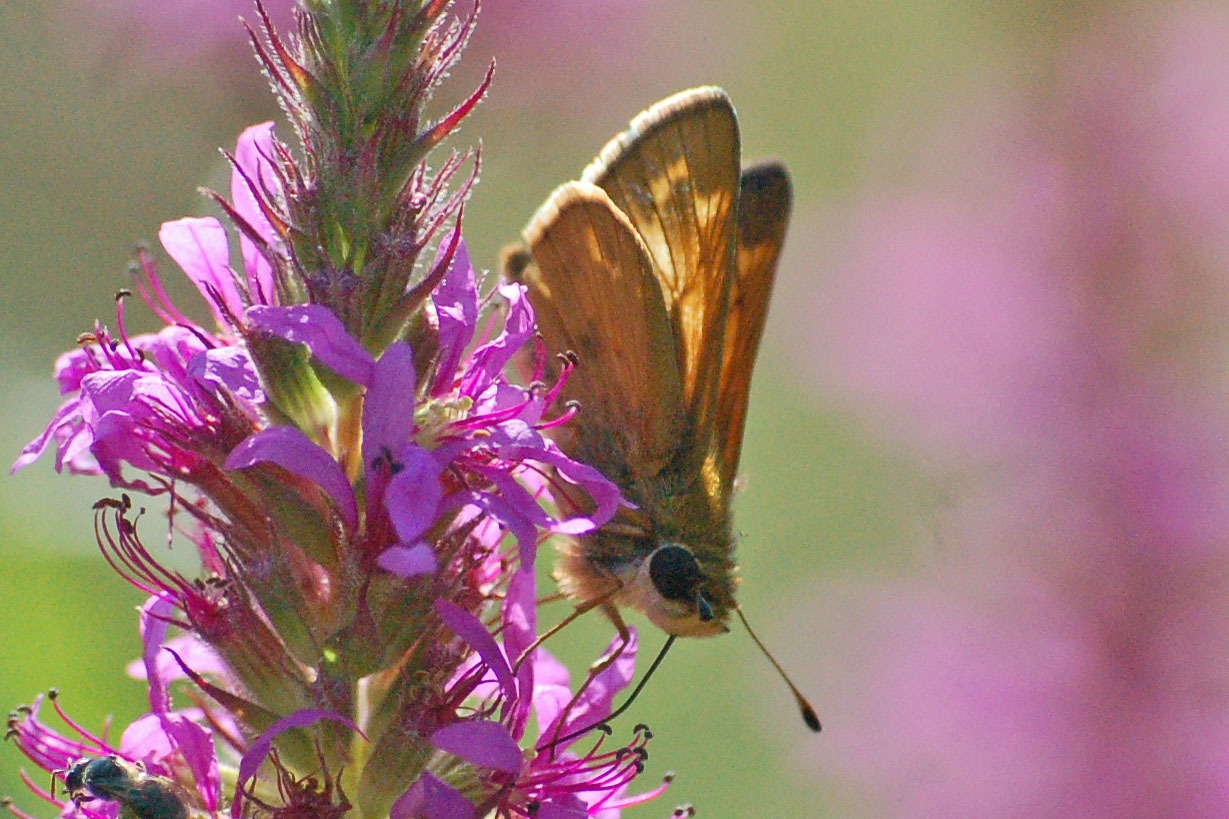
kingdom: Animalia
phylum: Arthropoda
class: Insecta
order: Lepidoptera
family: Hesperiidae
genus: Atalopedes
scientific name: Atalopedes
